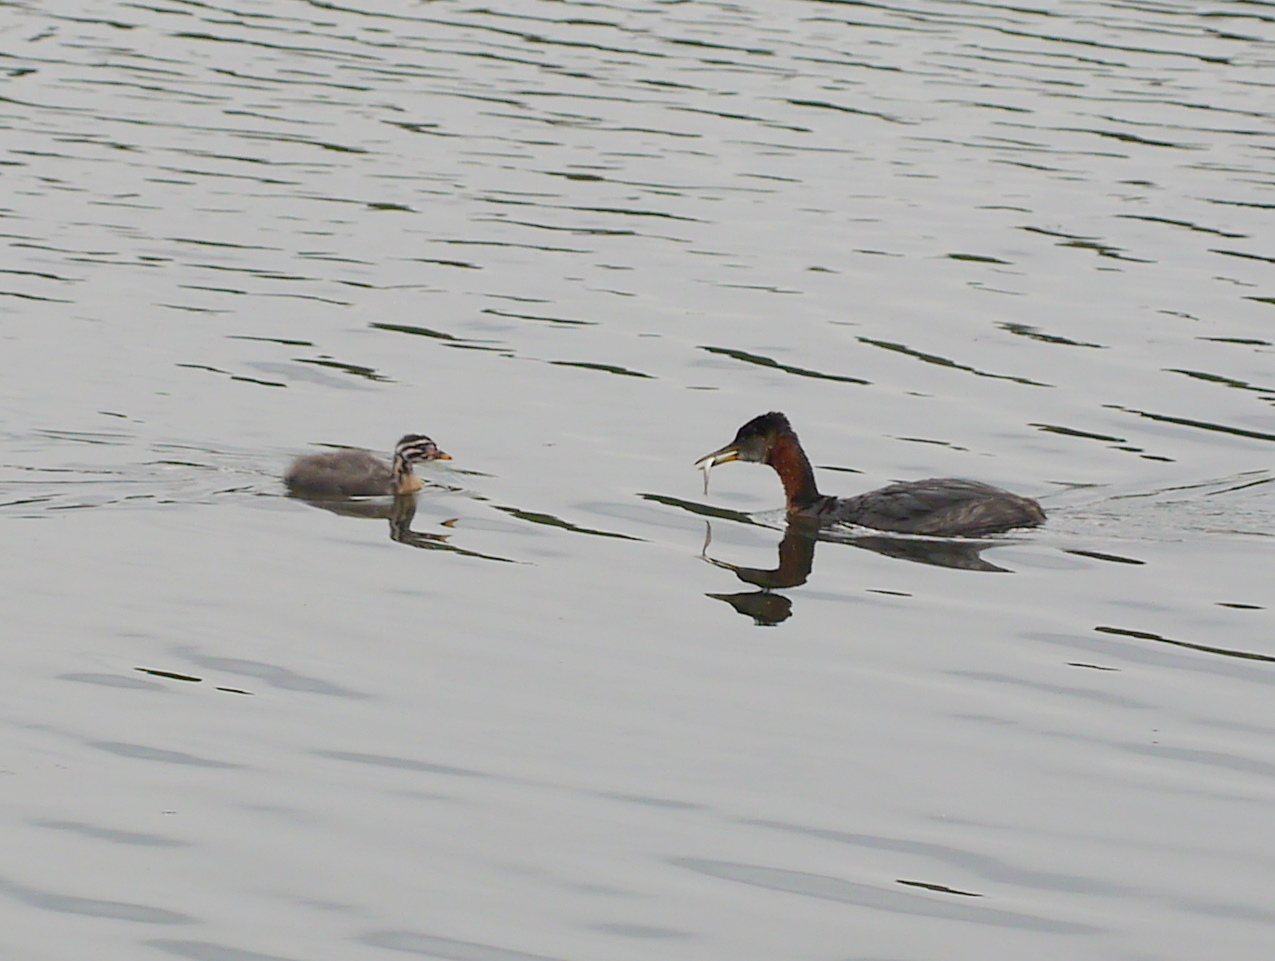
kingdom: Animalia
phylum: Chordata
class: Aves
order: Podicipediformes
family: Podicipedidae
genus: Podiceps
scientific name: Podiceps grisegena
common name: Red-necked grebe
